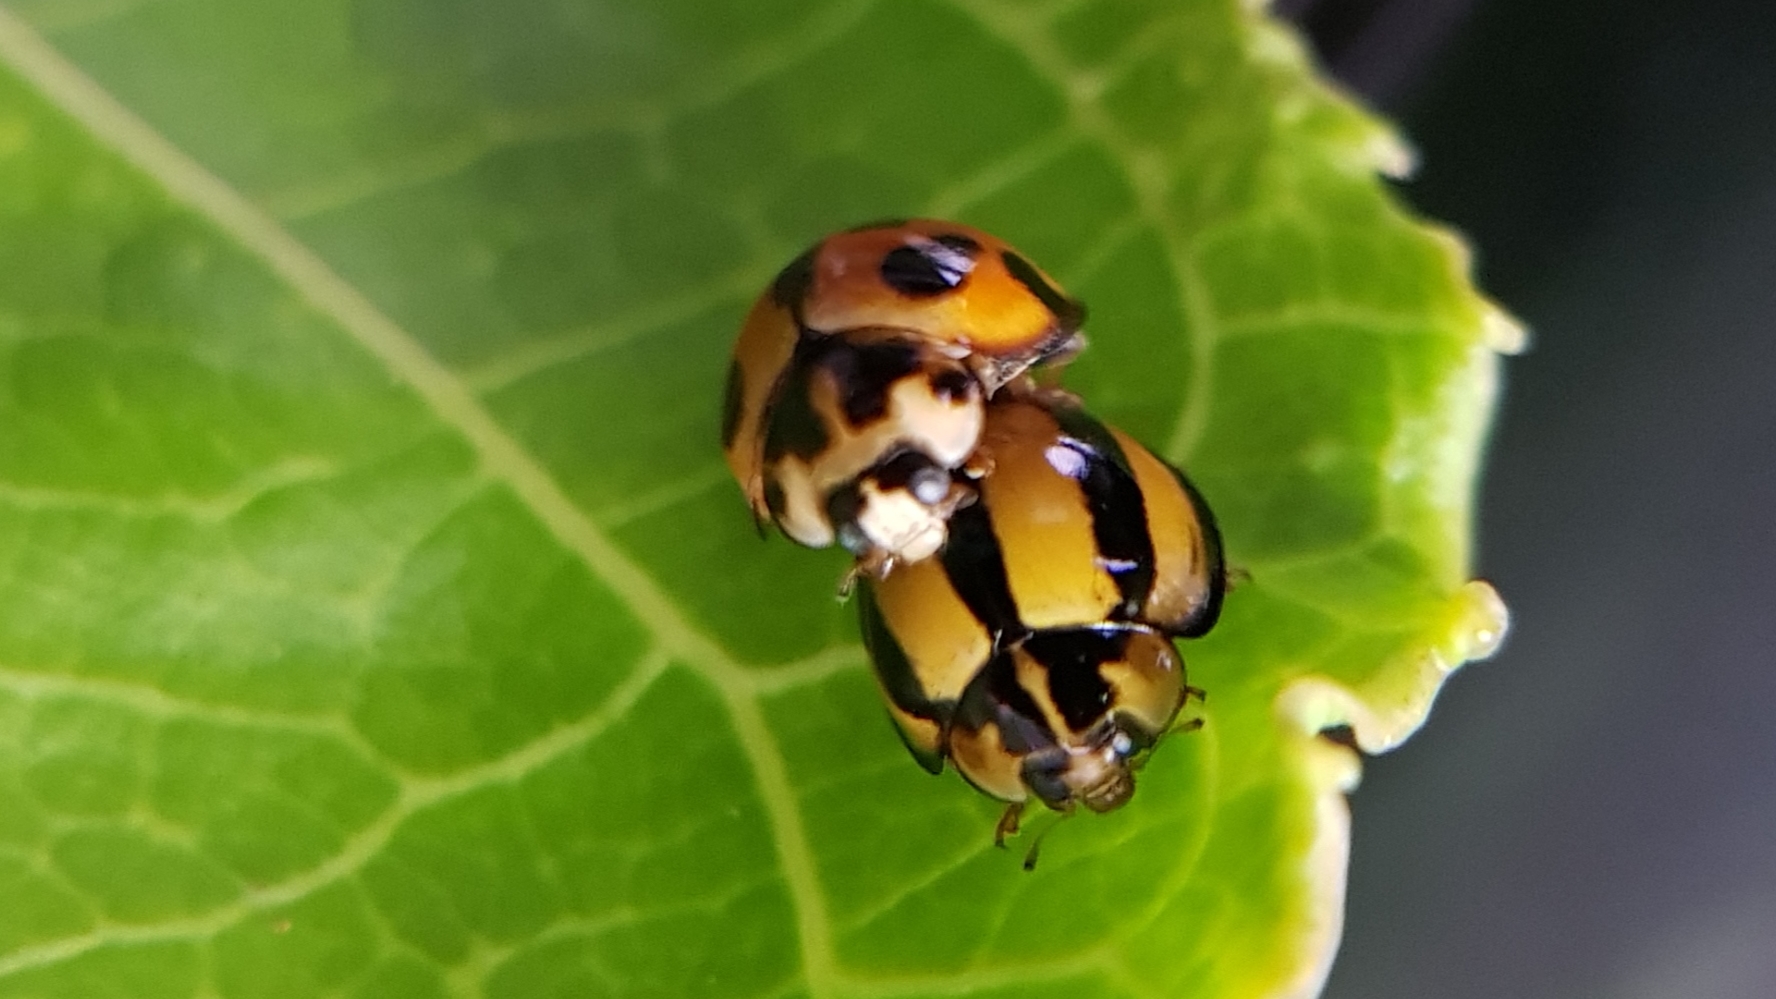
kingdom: Animalia
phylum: Arthropoda
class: Insecta
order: Coleoptera
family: Coccinellidae
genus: Coelophora
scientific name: Coelophora inaequalis
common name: Common australian lady beetle
